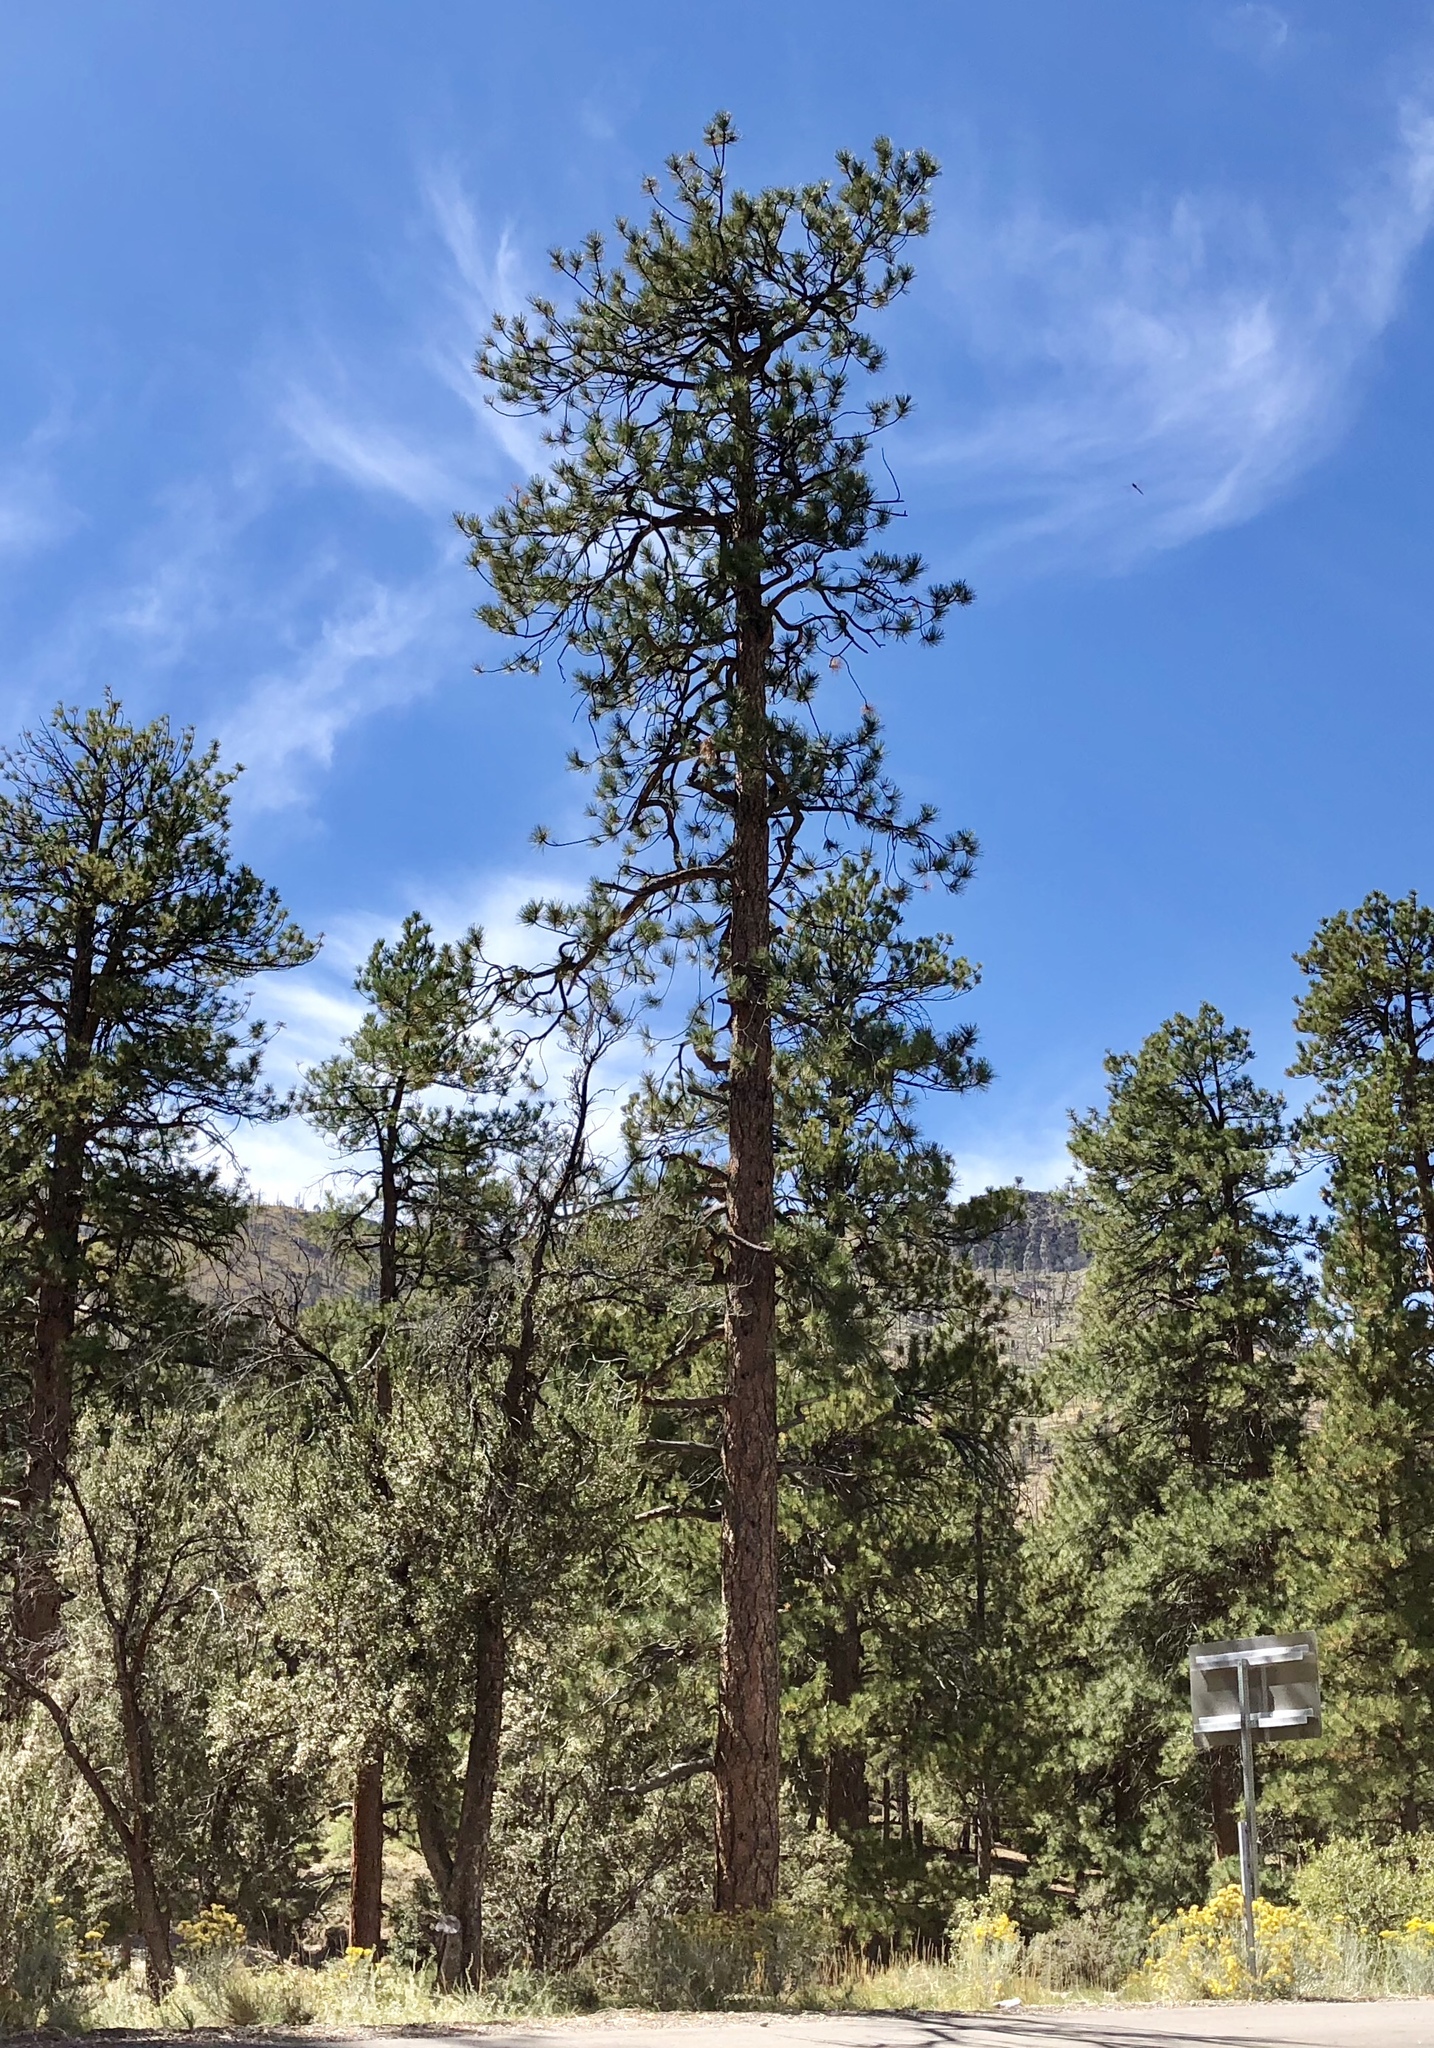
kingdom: Plantae
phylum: Tracheophyta
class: Pinopsida
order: Pinales
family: Pinaceae
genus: Pinus
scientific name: Pinus ponderosa
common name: Western yellow-pine
